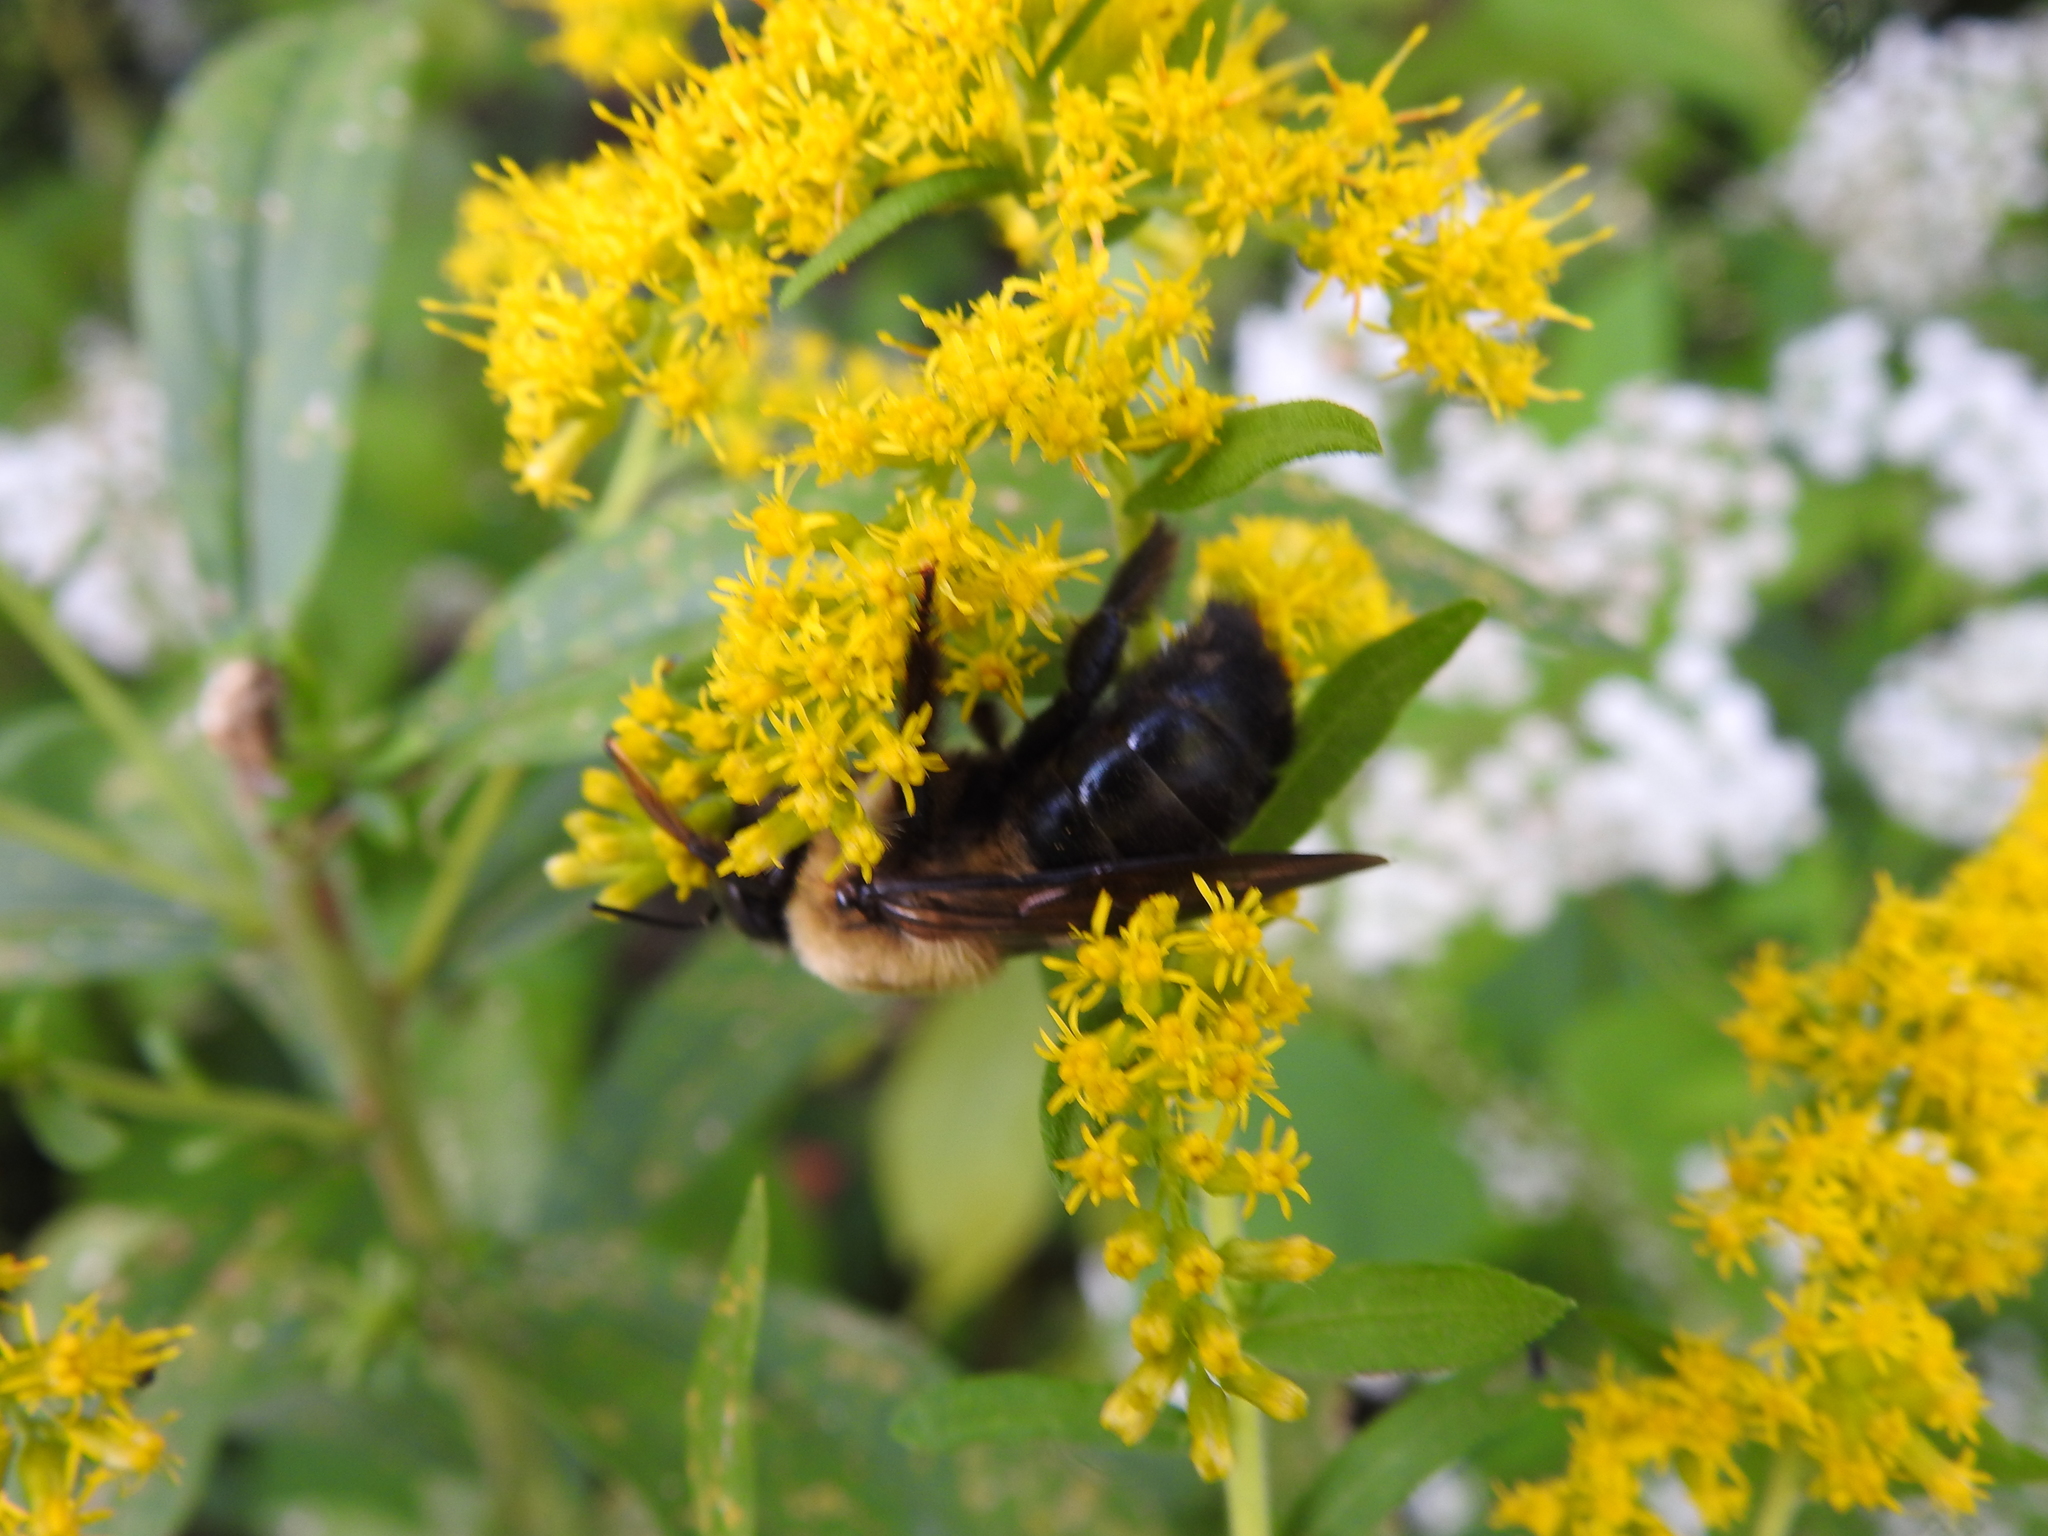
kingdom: Animalia
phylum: Arthropoda
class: Insecta
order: Hymenoptera
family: Apidae
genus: Xylocopa
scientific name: Xylocopa virginica
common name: Carpenter bee
